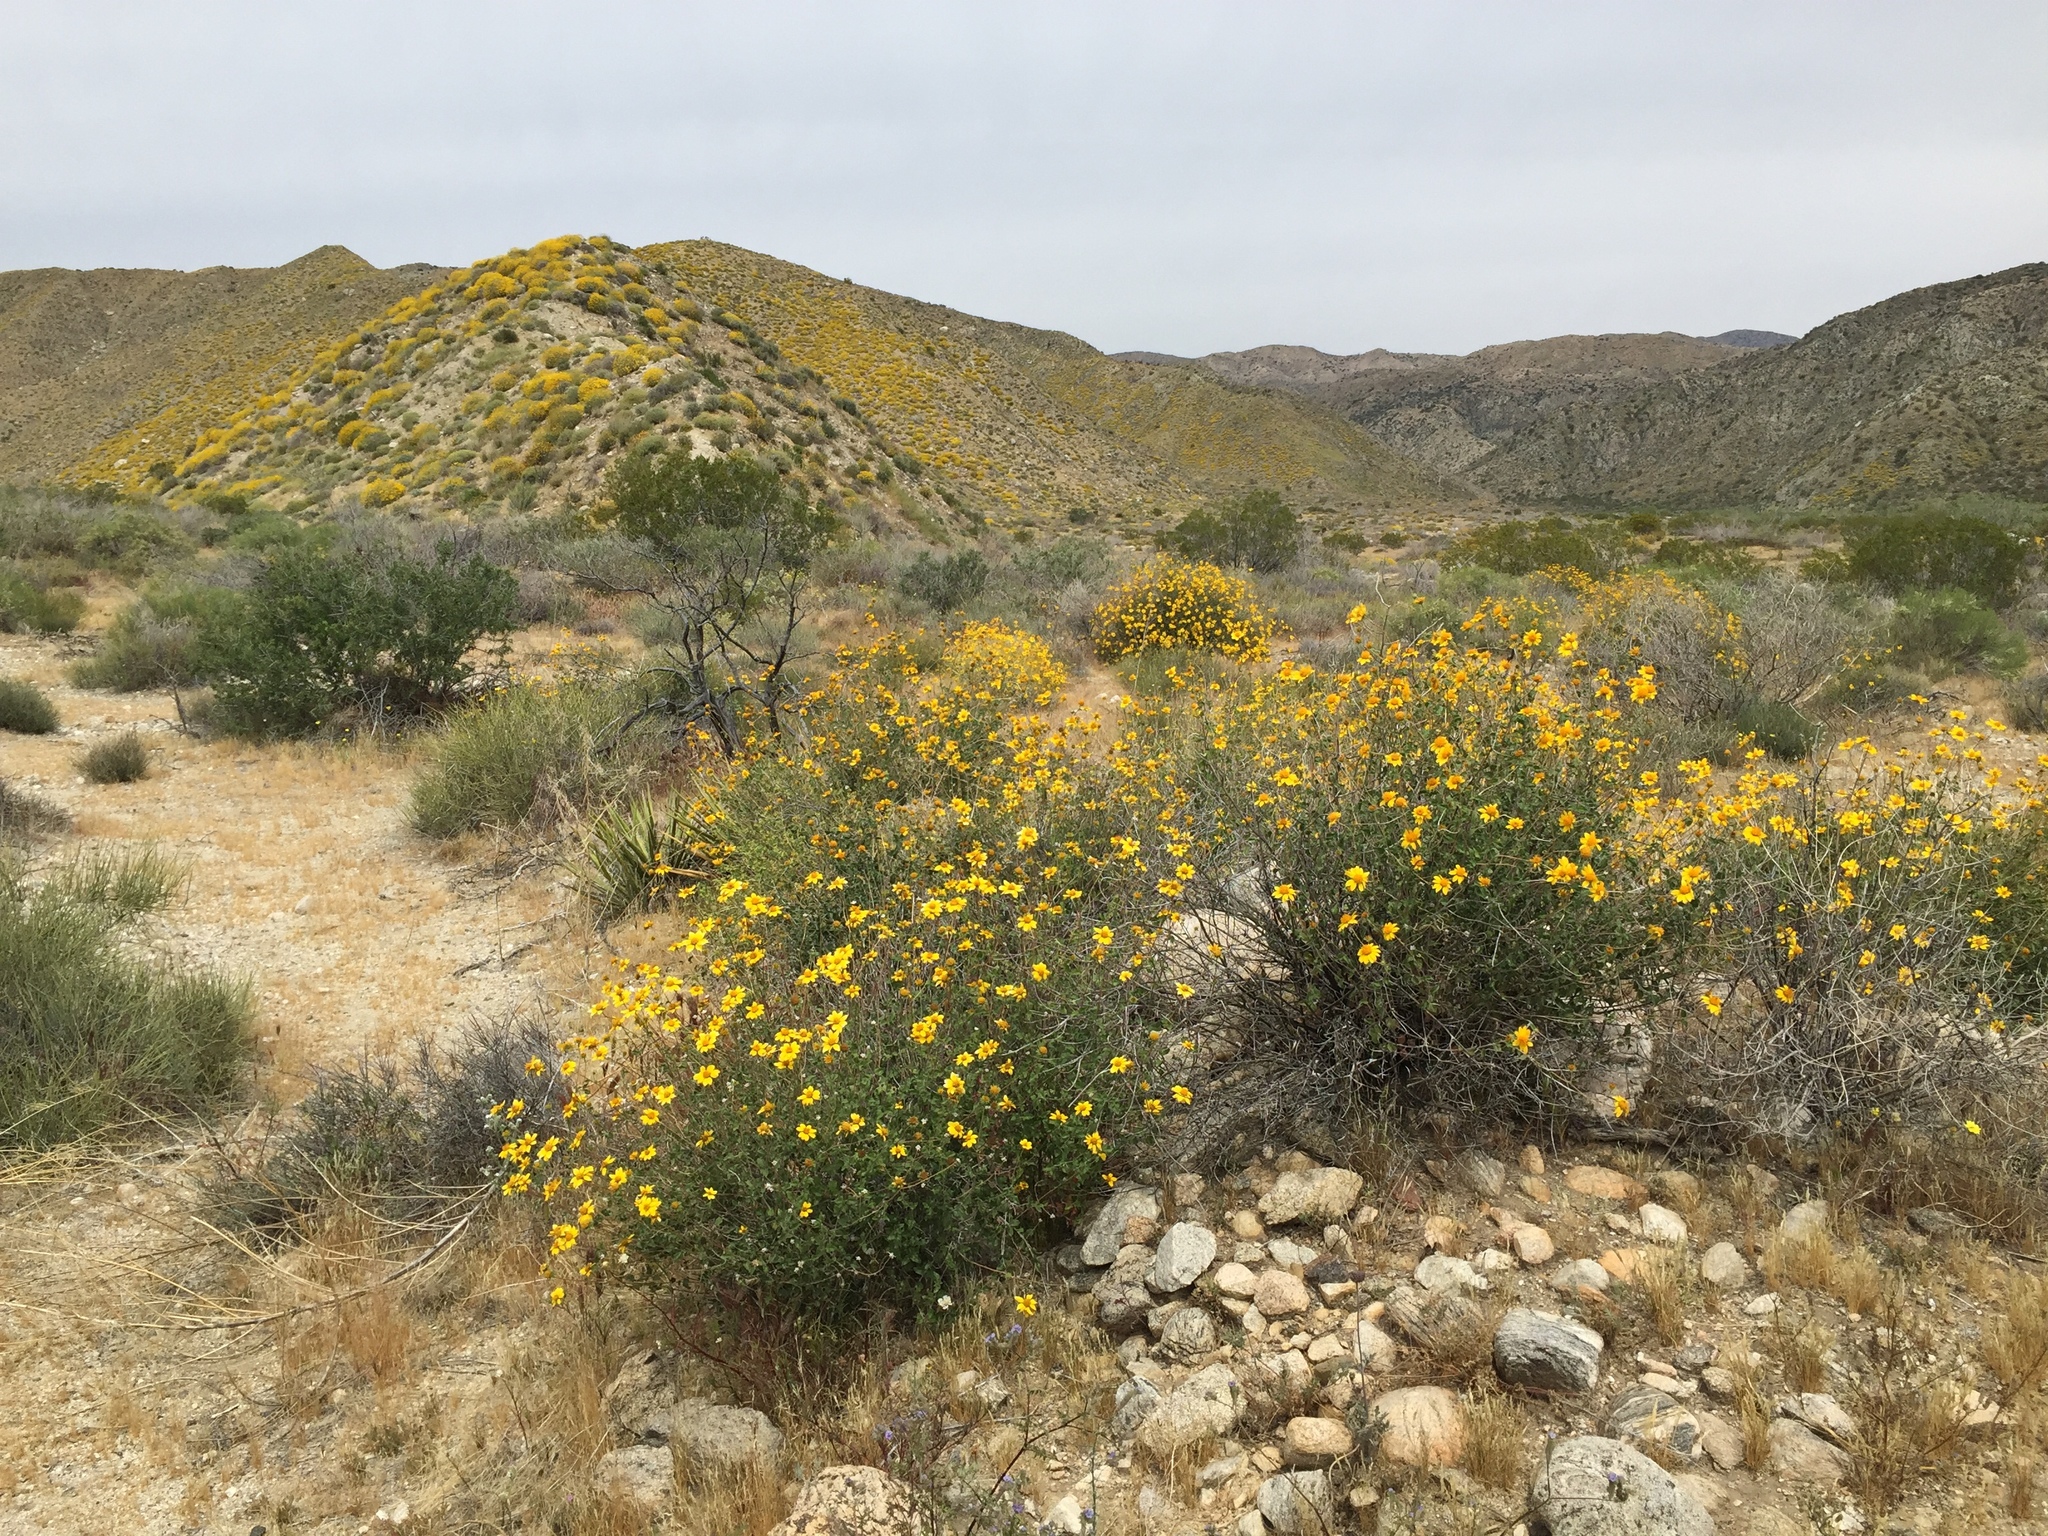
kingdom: Plantae
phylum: Tracheophyta
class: Magnoliopsida
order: Asterales
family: Asteraceae
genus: Bahiopsis
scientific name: Bahiopsis parishii
